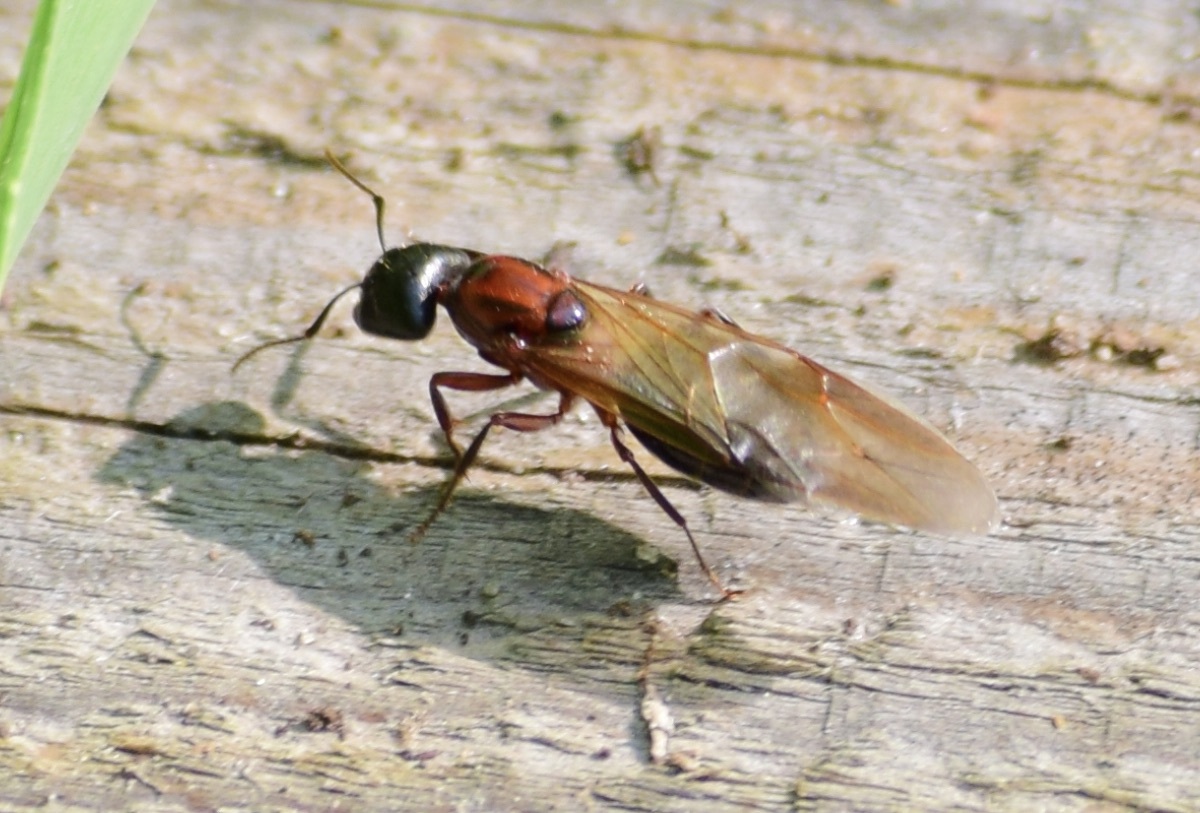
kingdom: Animalia
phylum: Arthropoda
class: Insecta
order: Hymenoptera
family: Formicidae
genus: Camponotus
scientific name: Camponotus novaeboracensis
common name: New york carpenter ant
